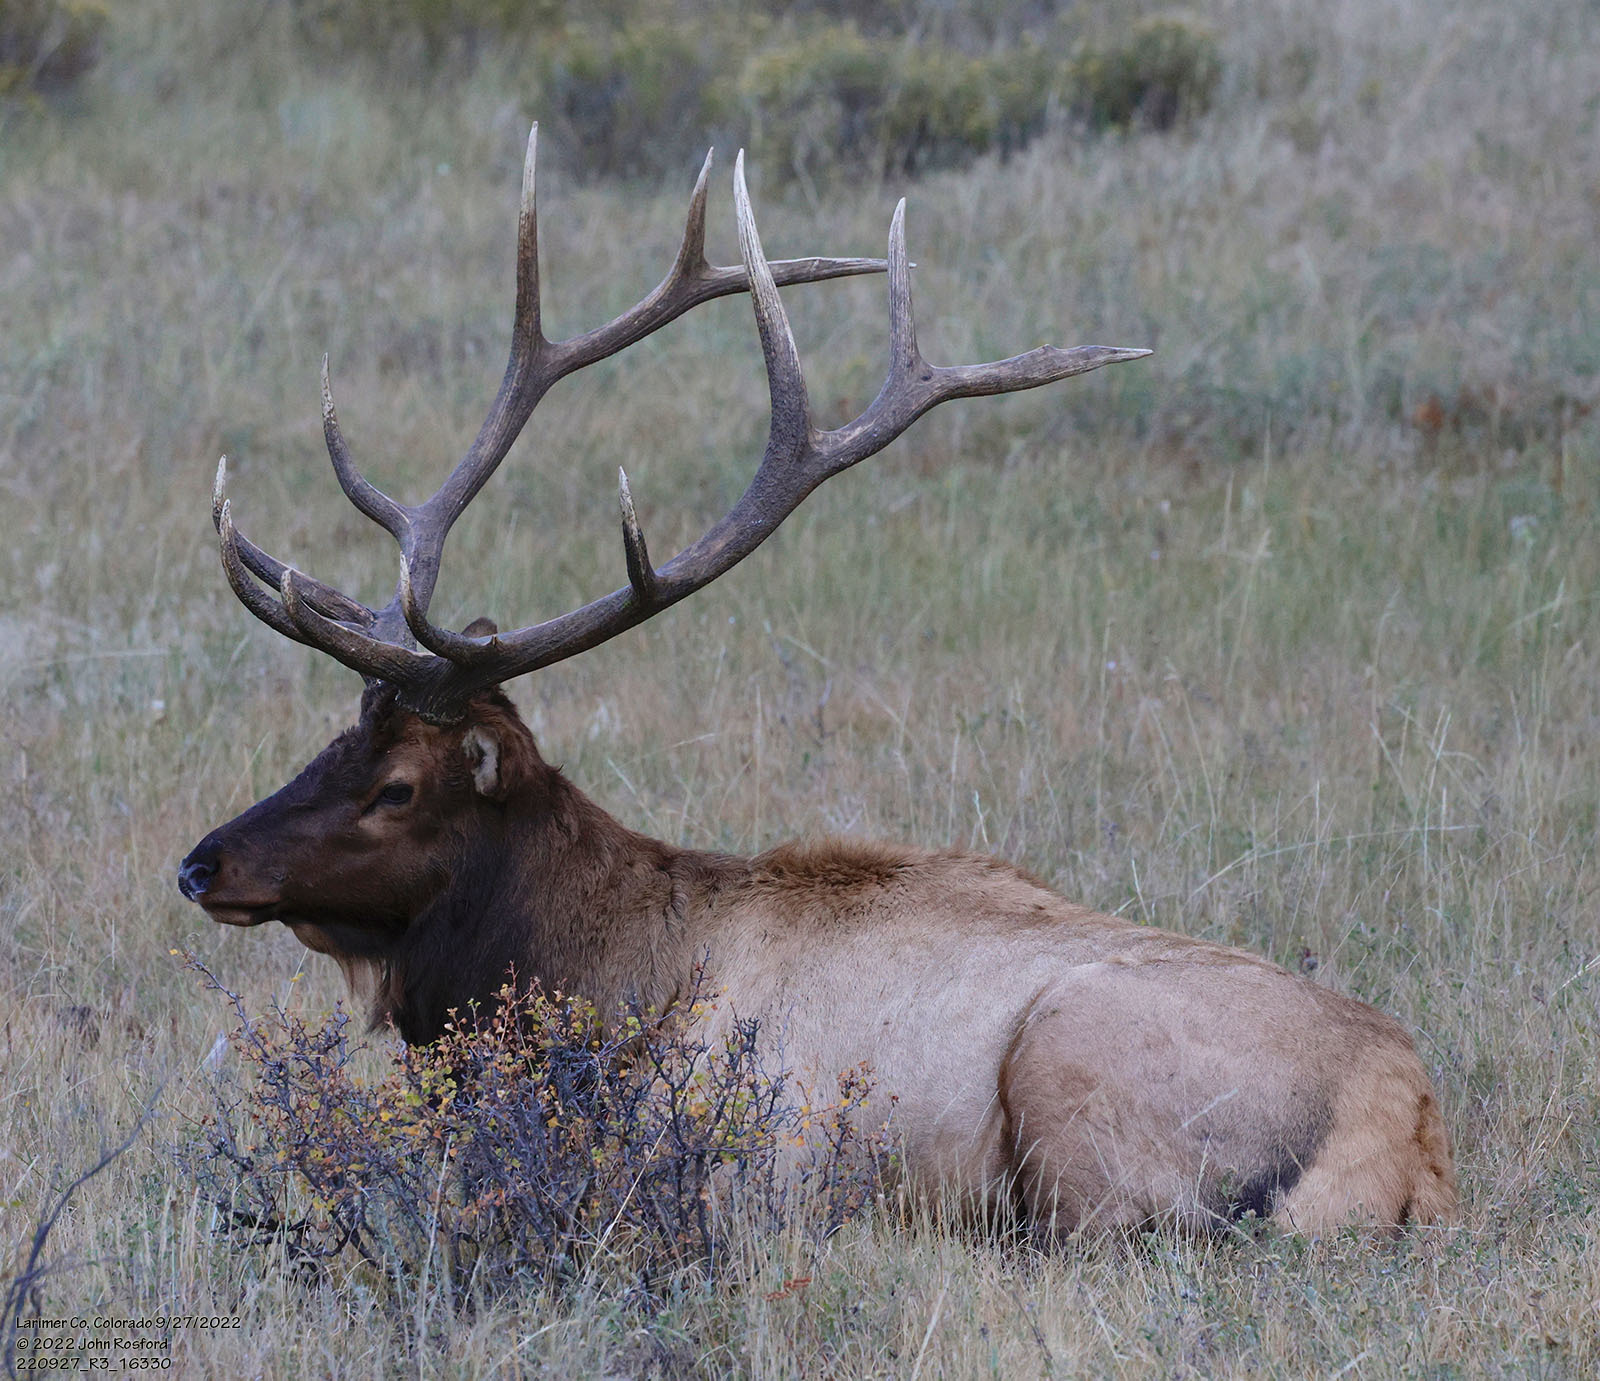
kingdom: Animalia
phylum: Chordata
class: Mammalia
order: Artiodactyla
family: Cervidae
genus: Cervus
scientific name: Cervus elaphus
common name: Red deer
